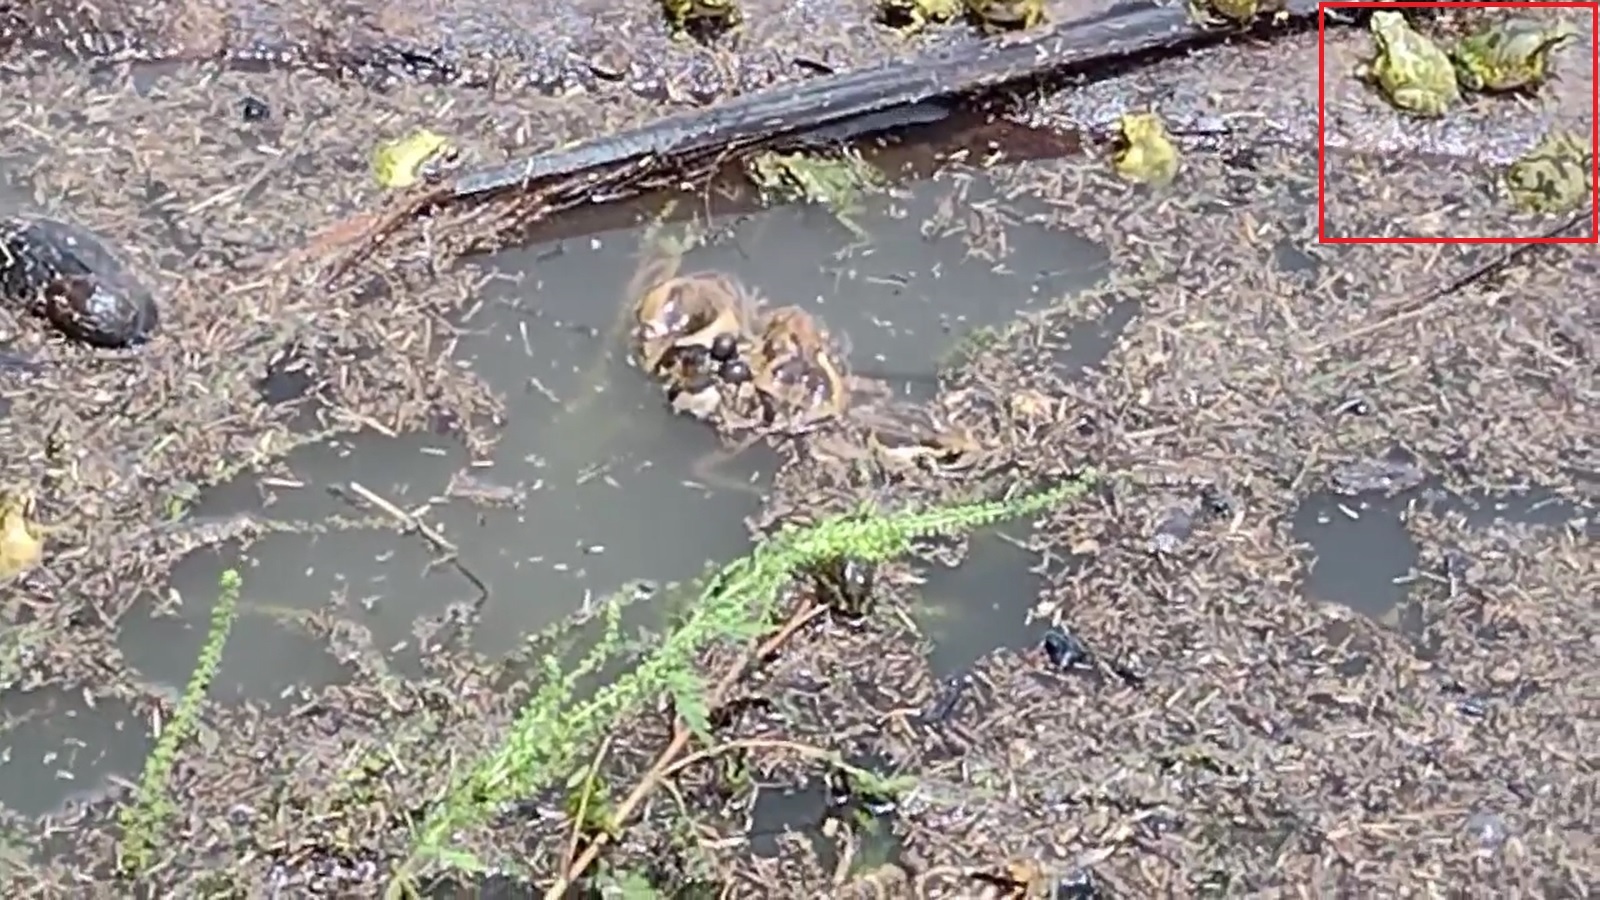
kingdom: Animalia
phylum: Chordata
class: Amphibia
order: Anura
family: Hylidae
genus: Smilisca
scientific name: Smilisca baudinii
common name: Mexican smilisca
